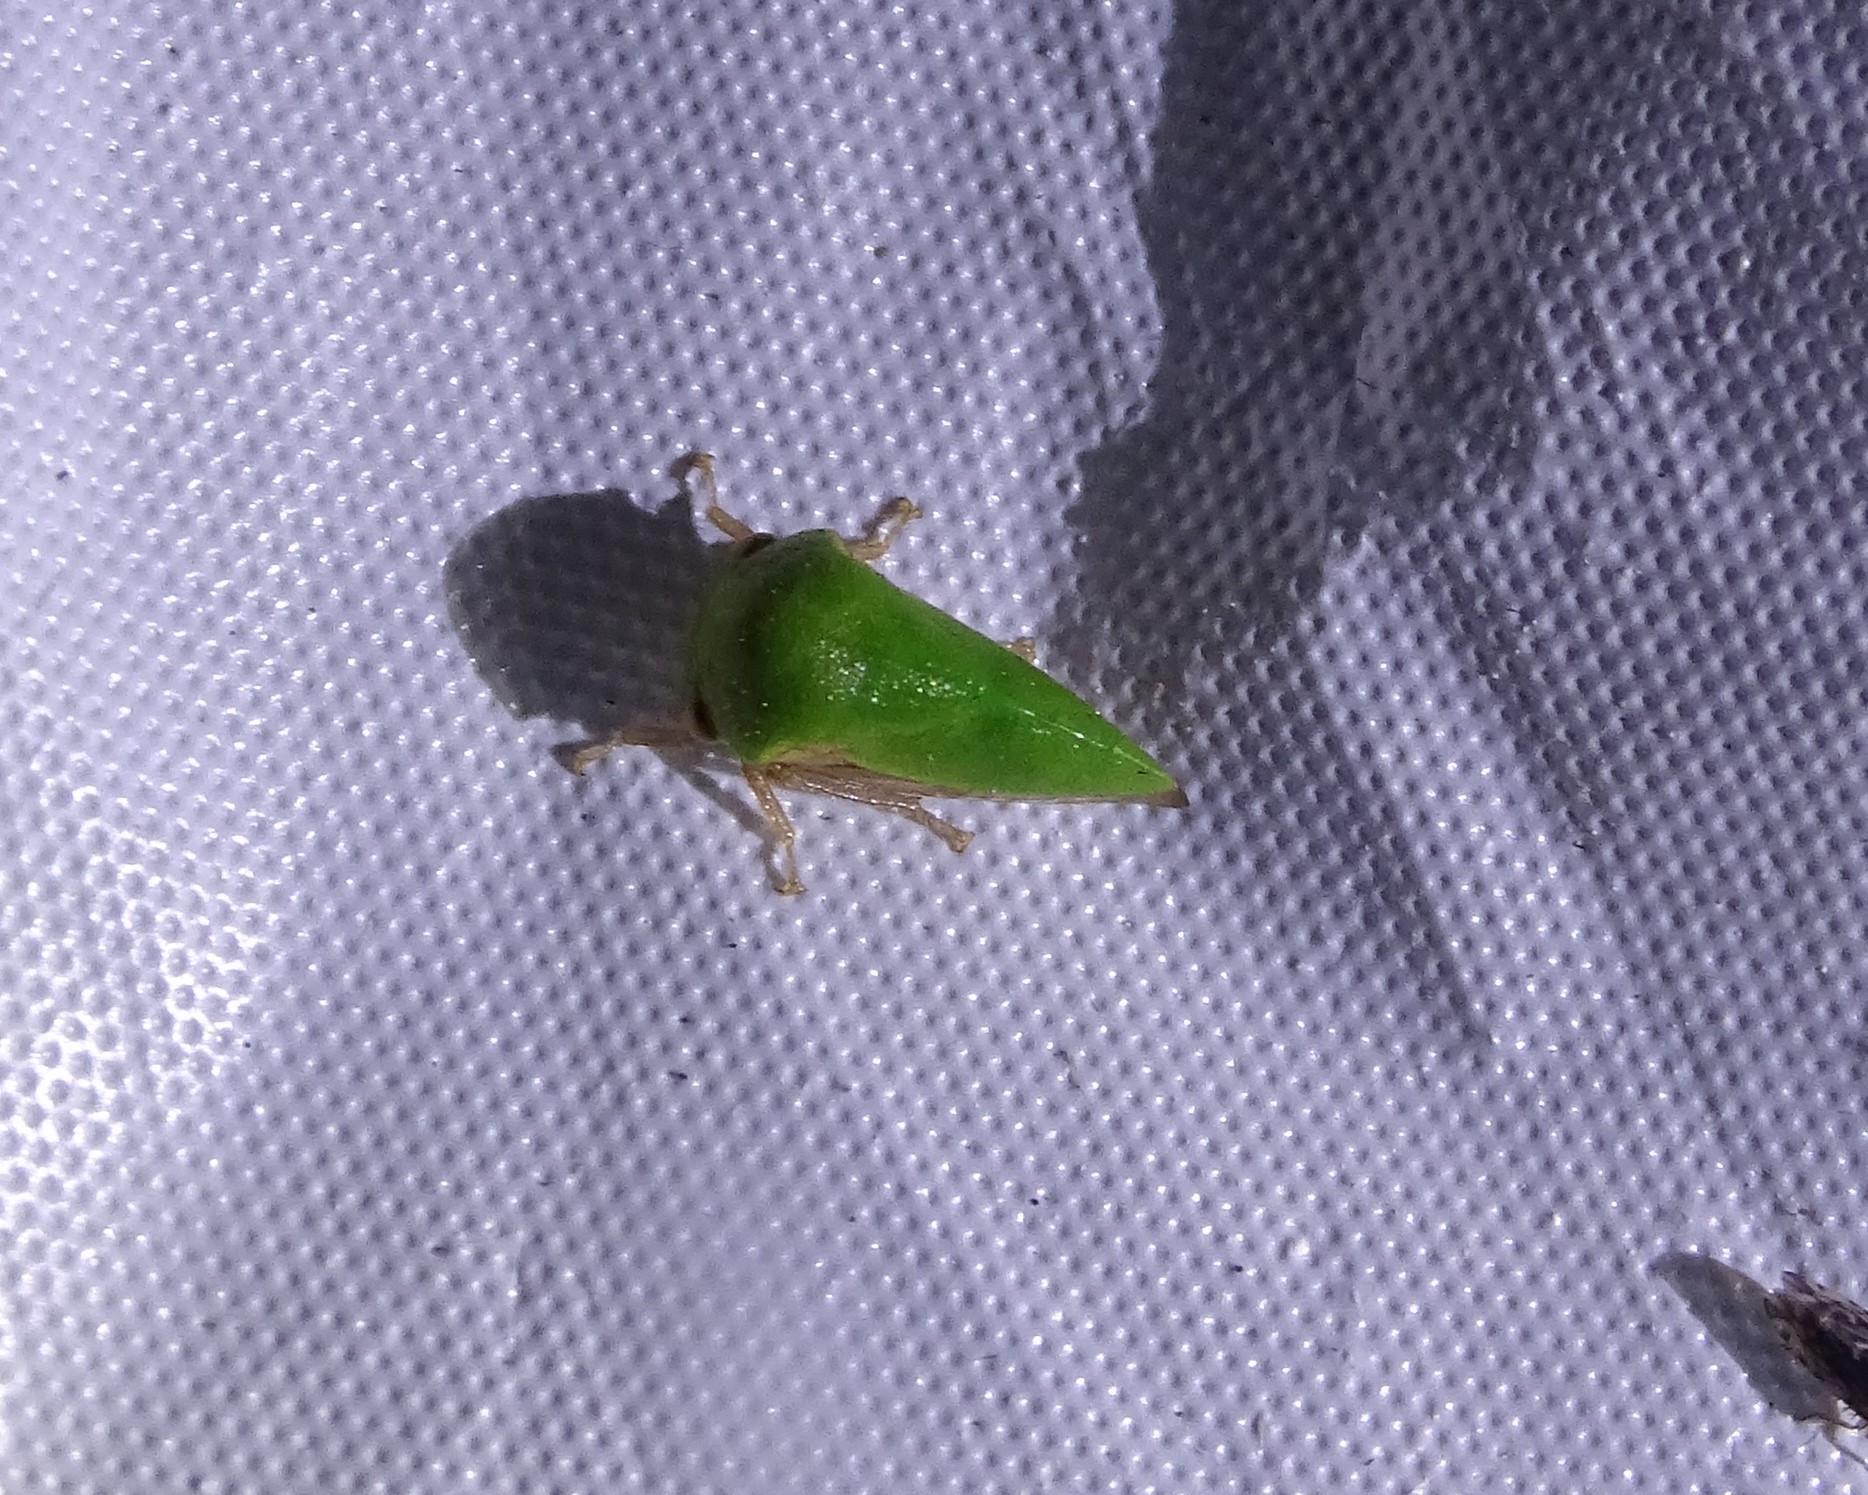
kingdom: Animalia
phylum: Arthropoda
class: Insecta
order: Hemiptera
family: Membracidae
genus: Ophiderma
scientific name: Ophiderma evelyna
